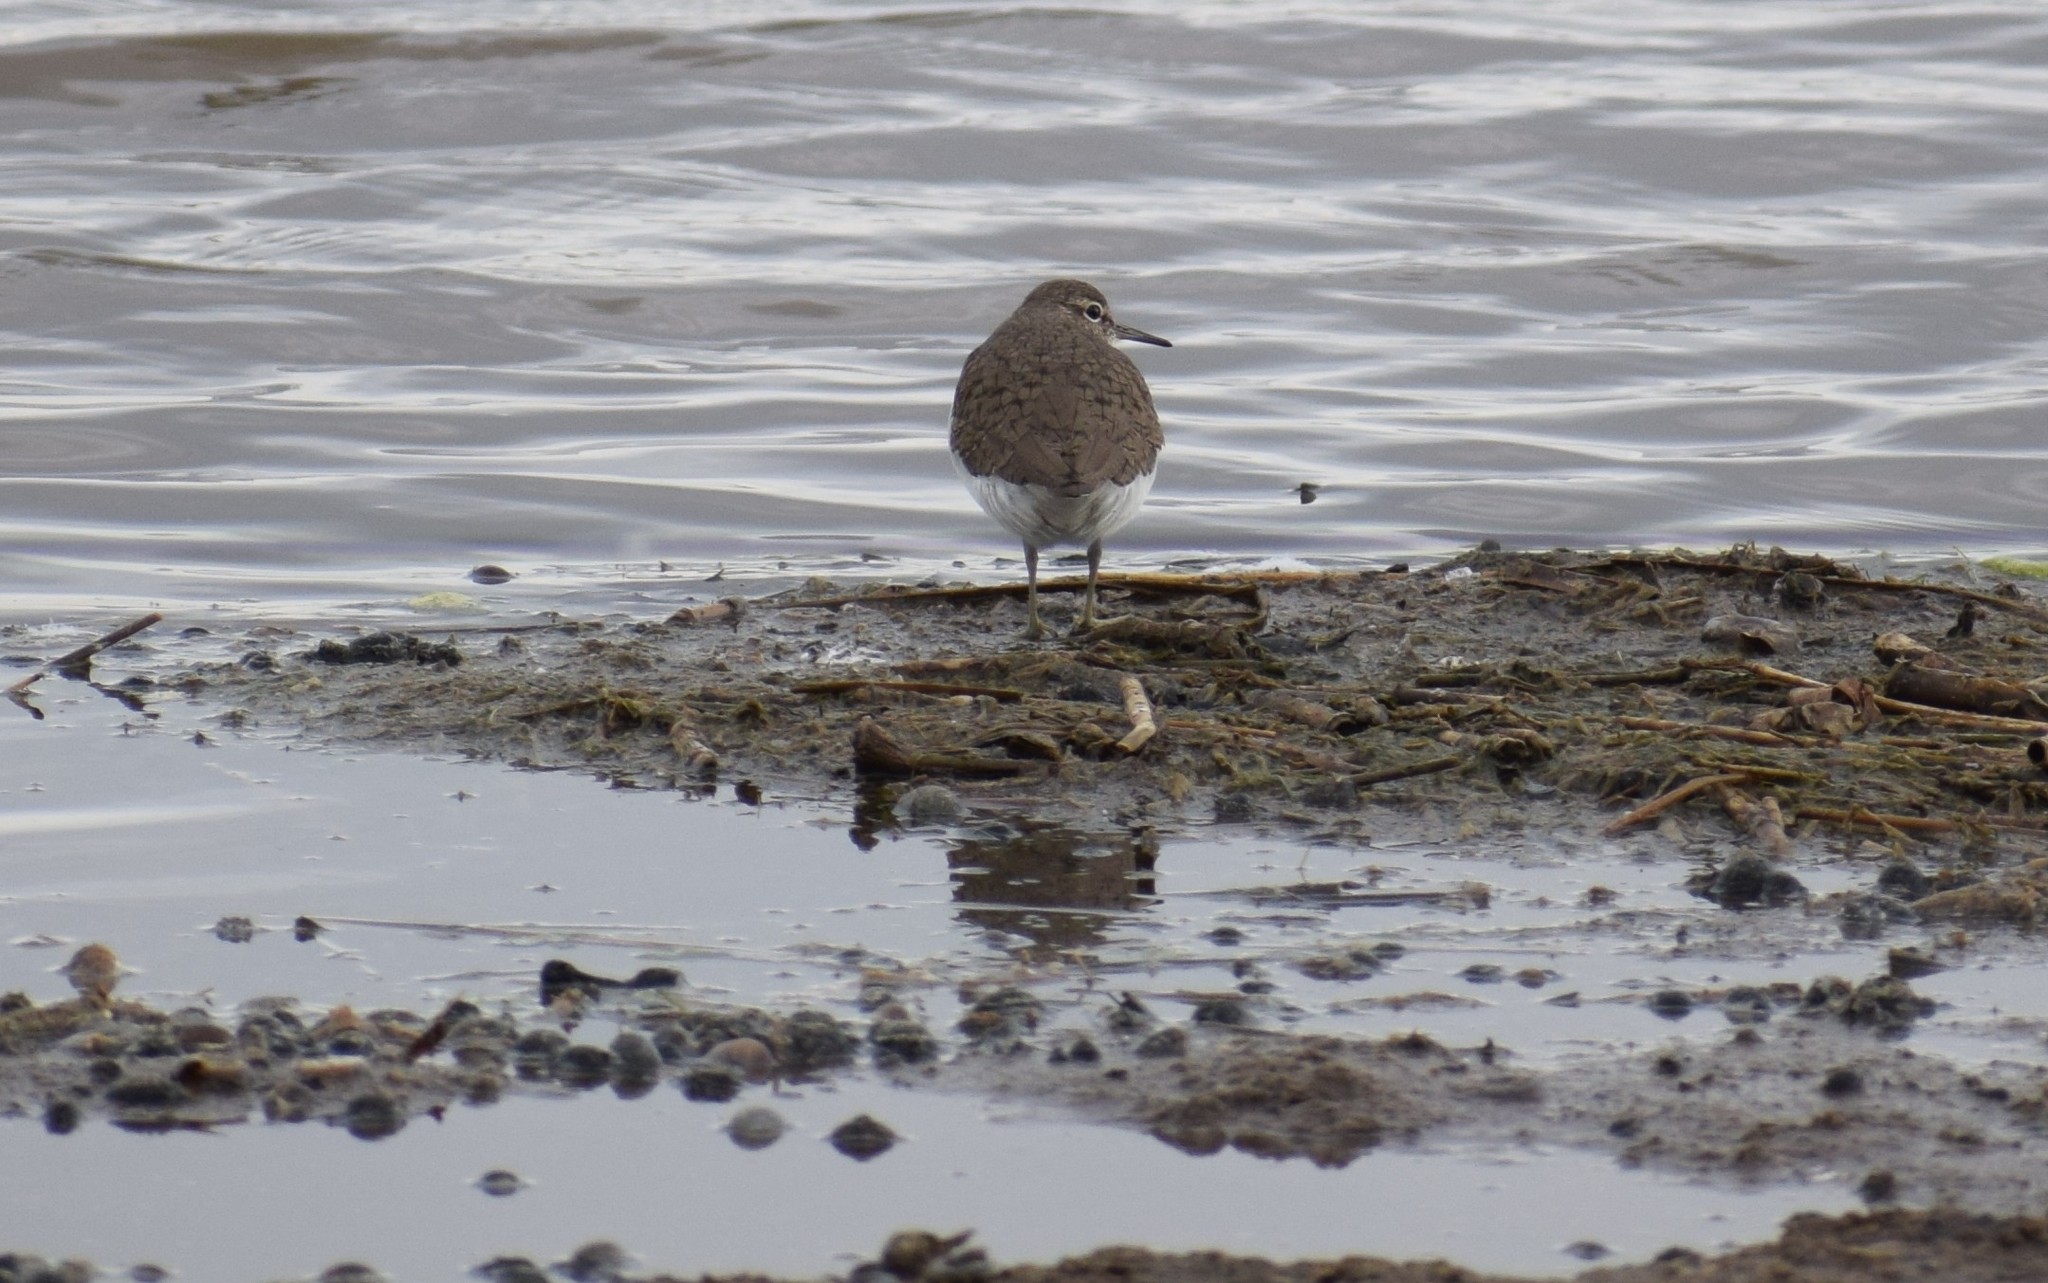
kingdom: Animalia
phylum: Chordata
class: Aves
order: Charadriiformes
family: Scolopacidae
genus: Actitis
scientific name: Actitis hypoleucos
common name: Common sandpiper
